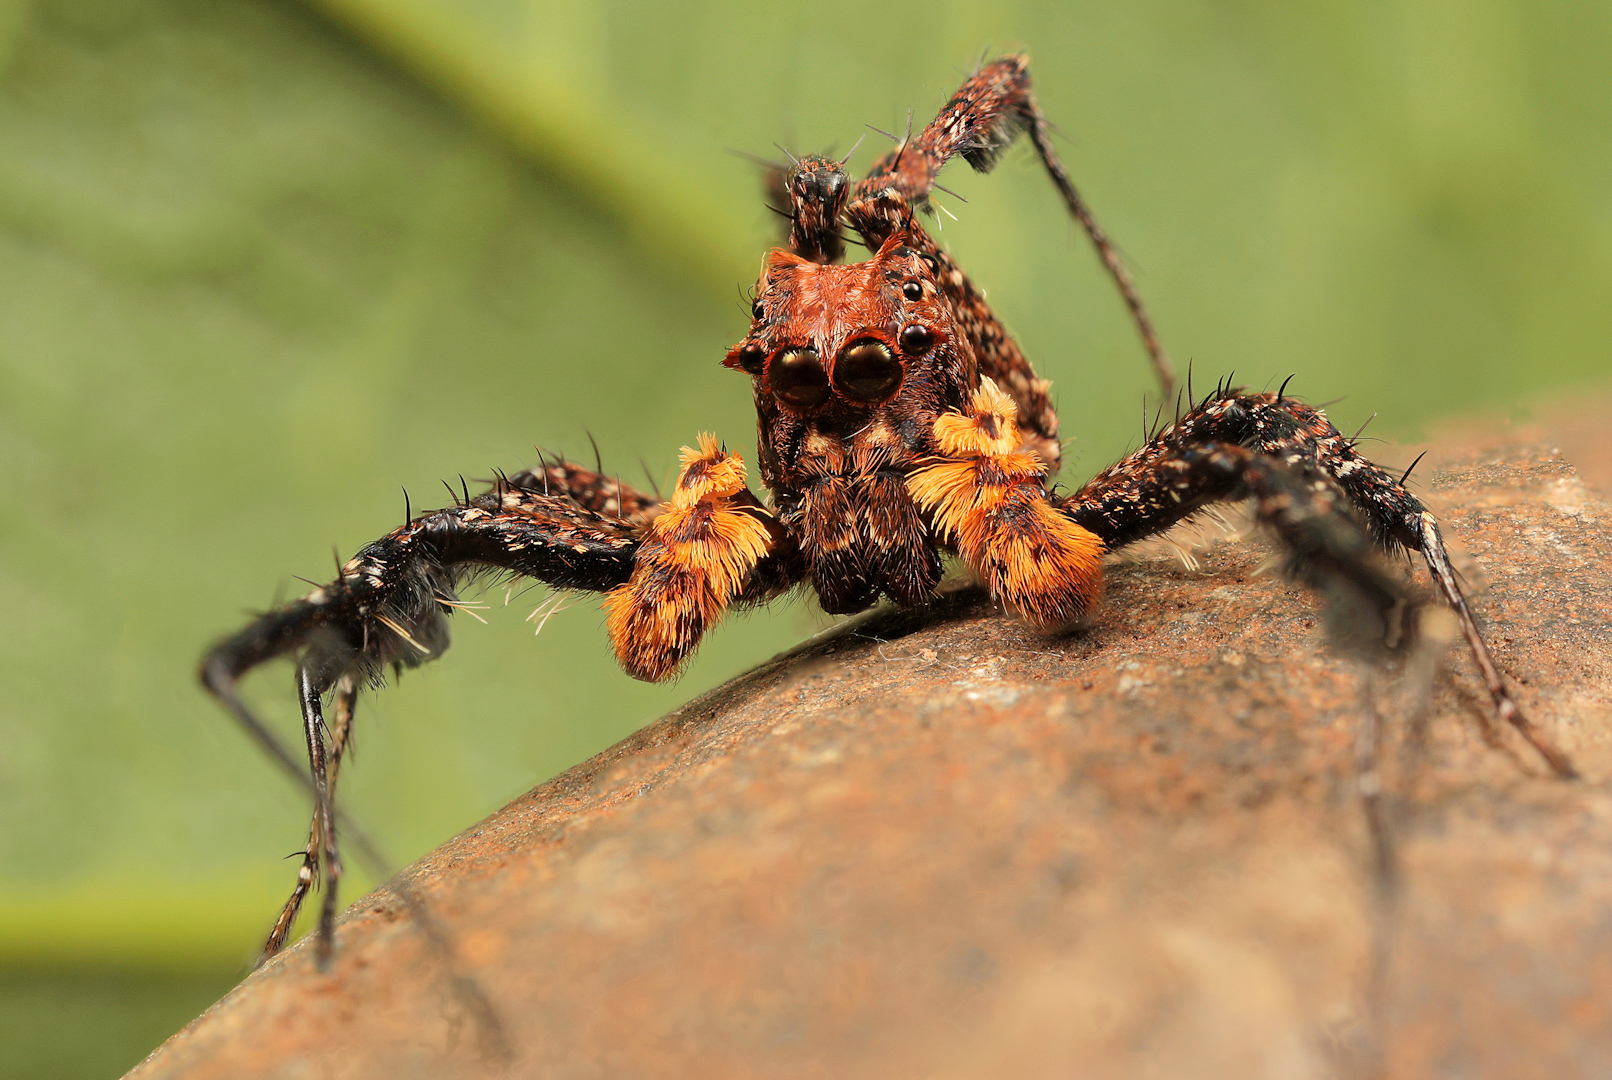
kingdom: Animalia
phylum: Arthropoda
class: Arachnida
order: Araneae
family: Salticidae
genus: Portia
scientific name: Portia schultzi
